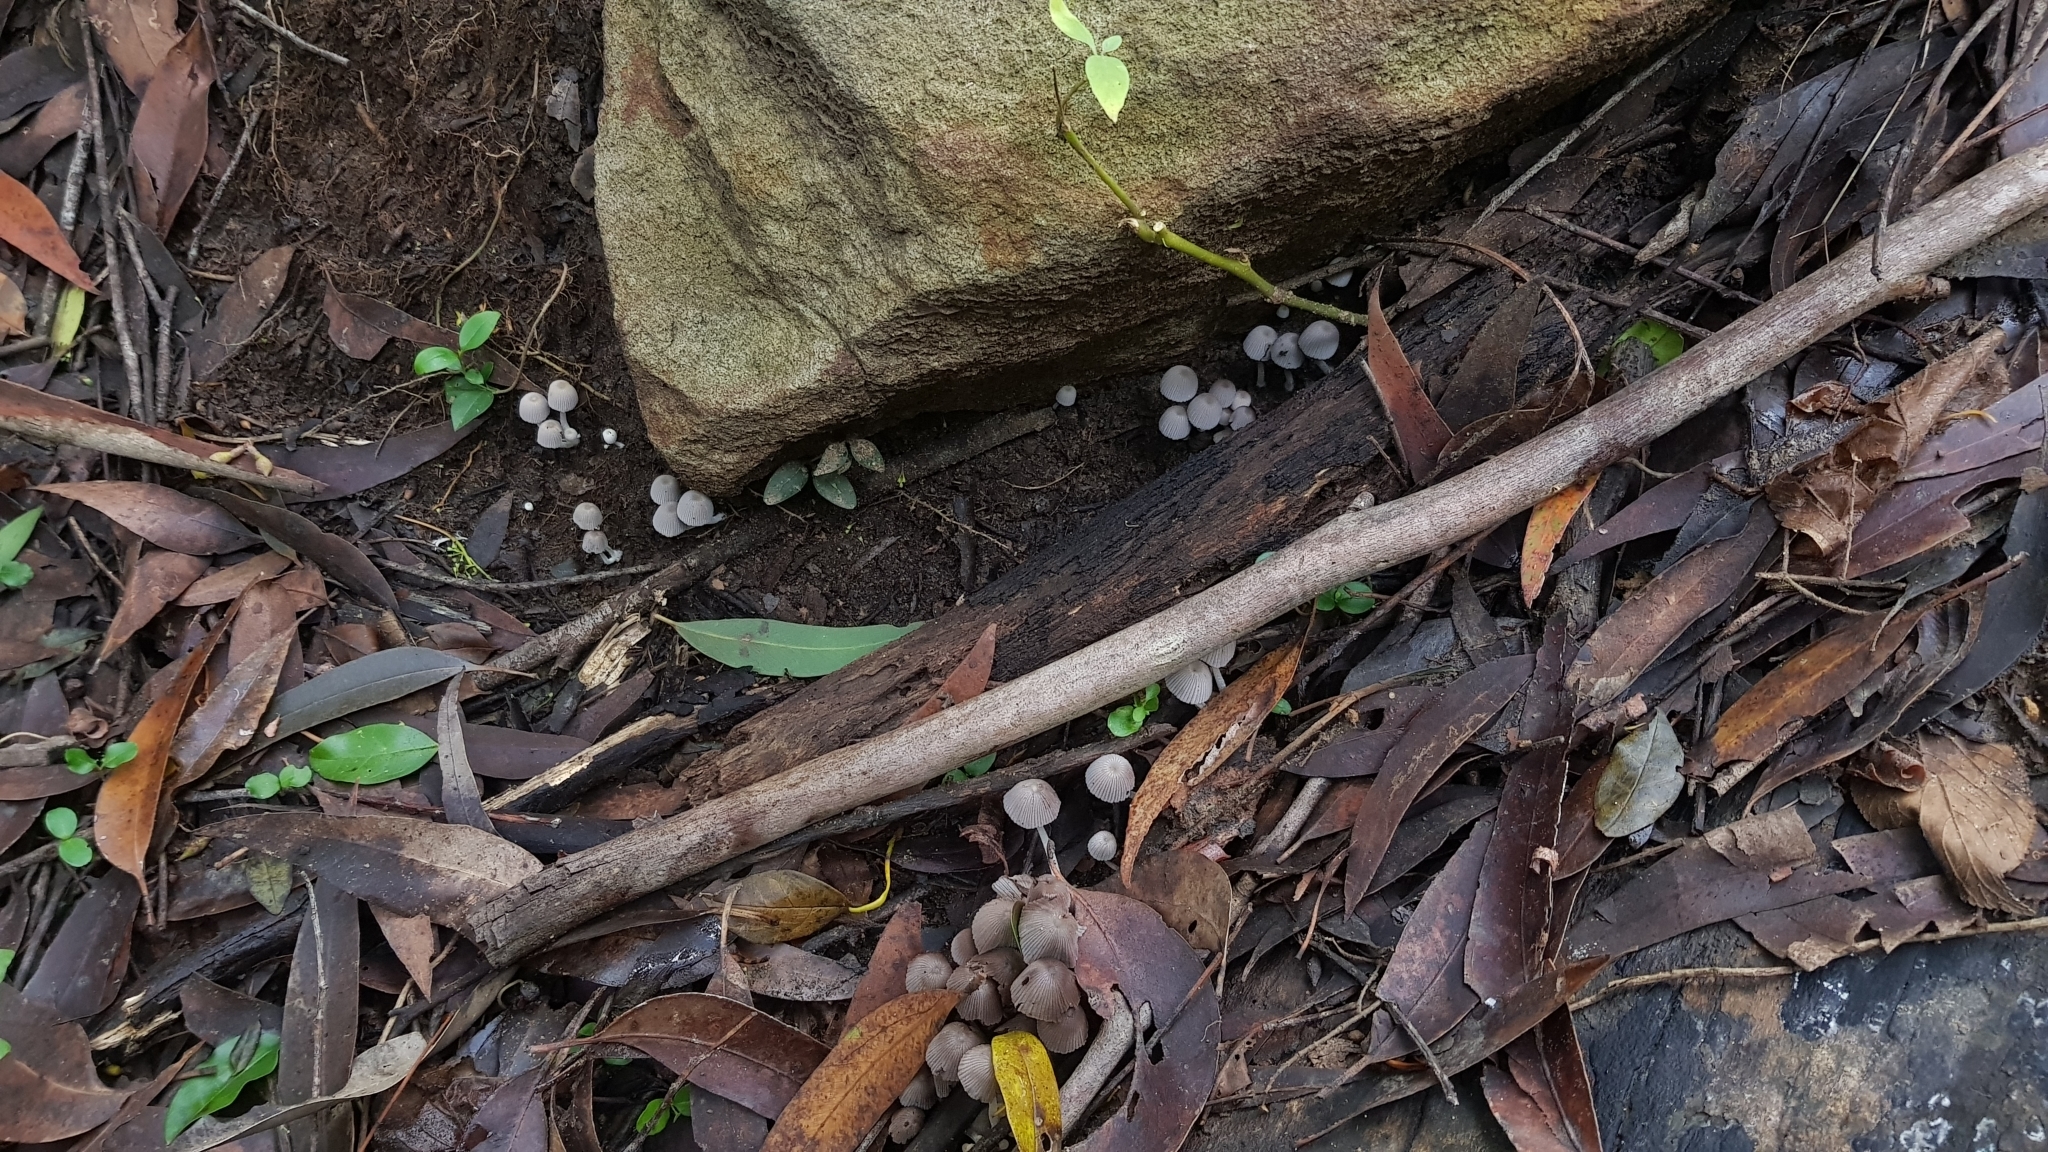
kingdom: Fungi
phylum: Basidiomycota
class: Agaricomycetes
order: Agaricales
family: Psathyrellaceae
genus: Coprinellus
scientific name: Coprinellus disseminatus
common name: Fairies' bonnets
